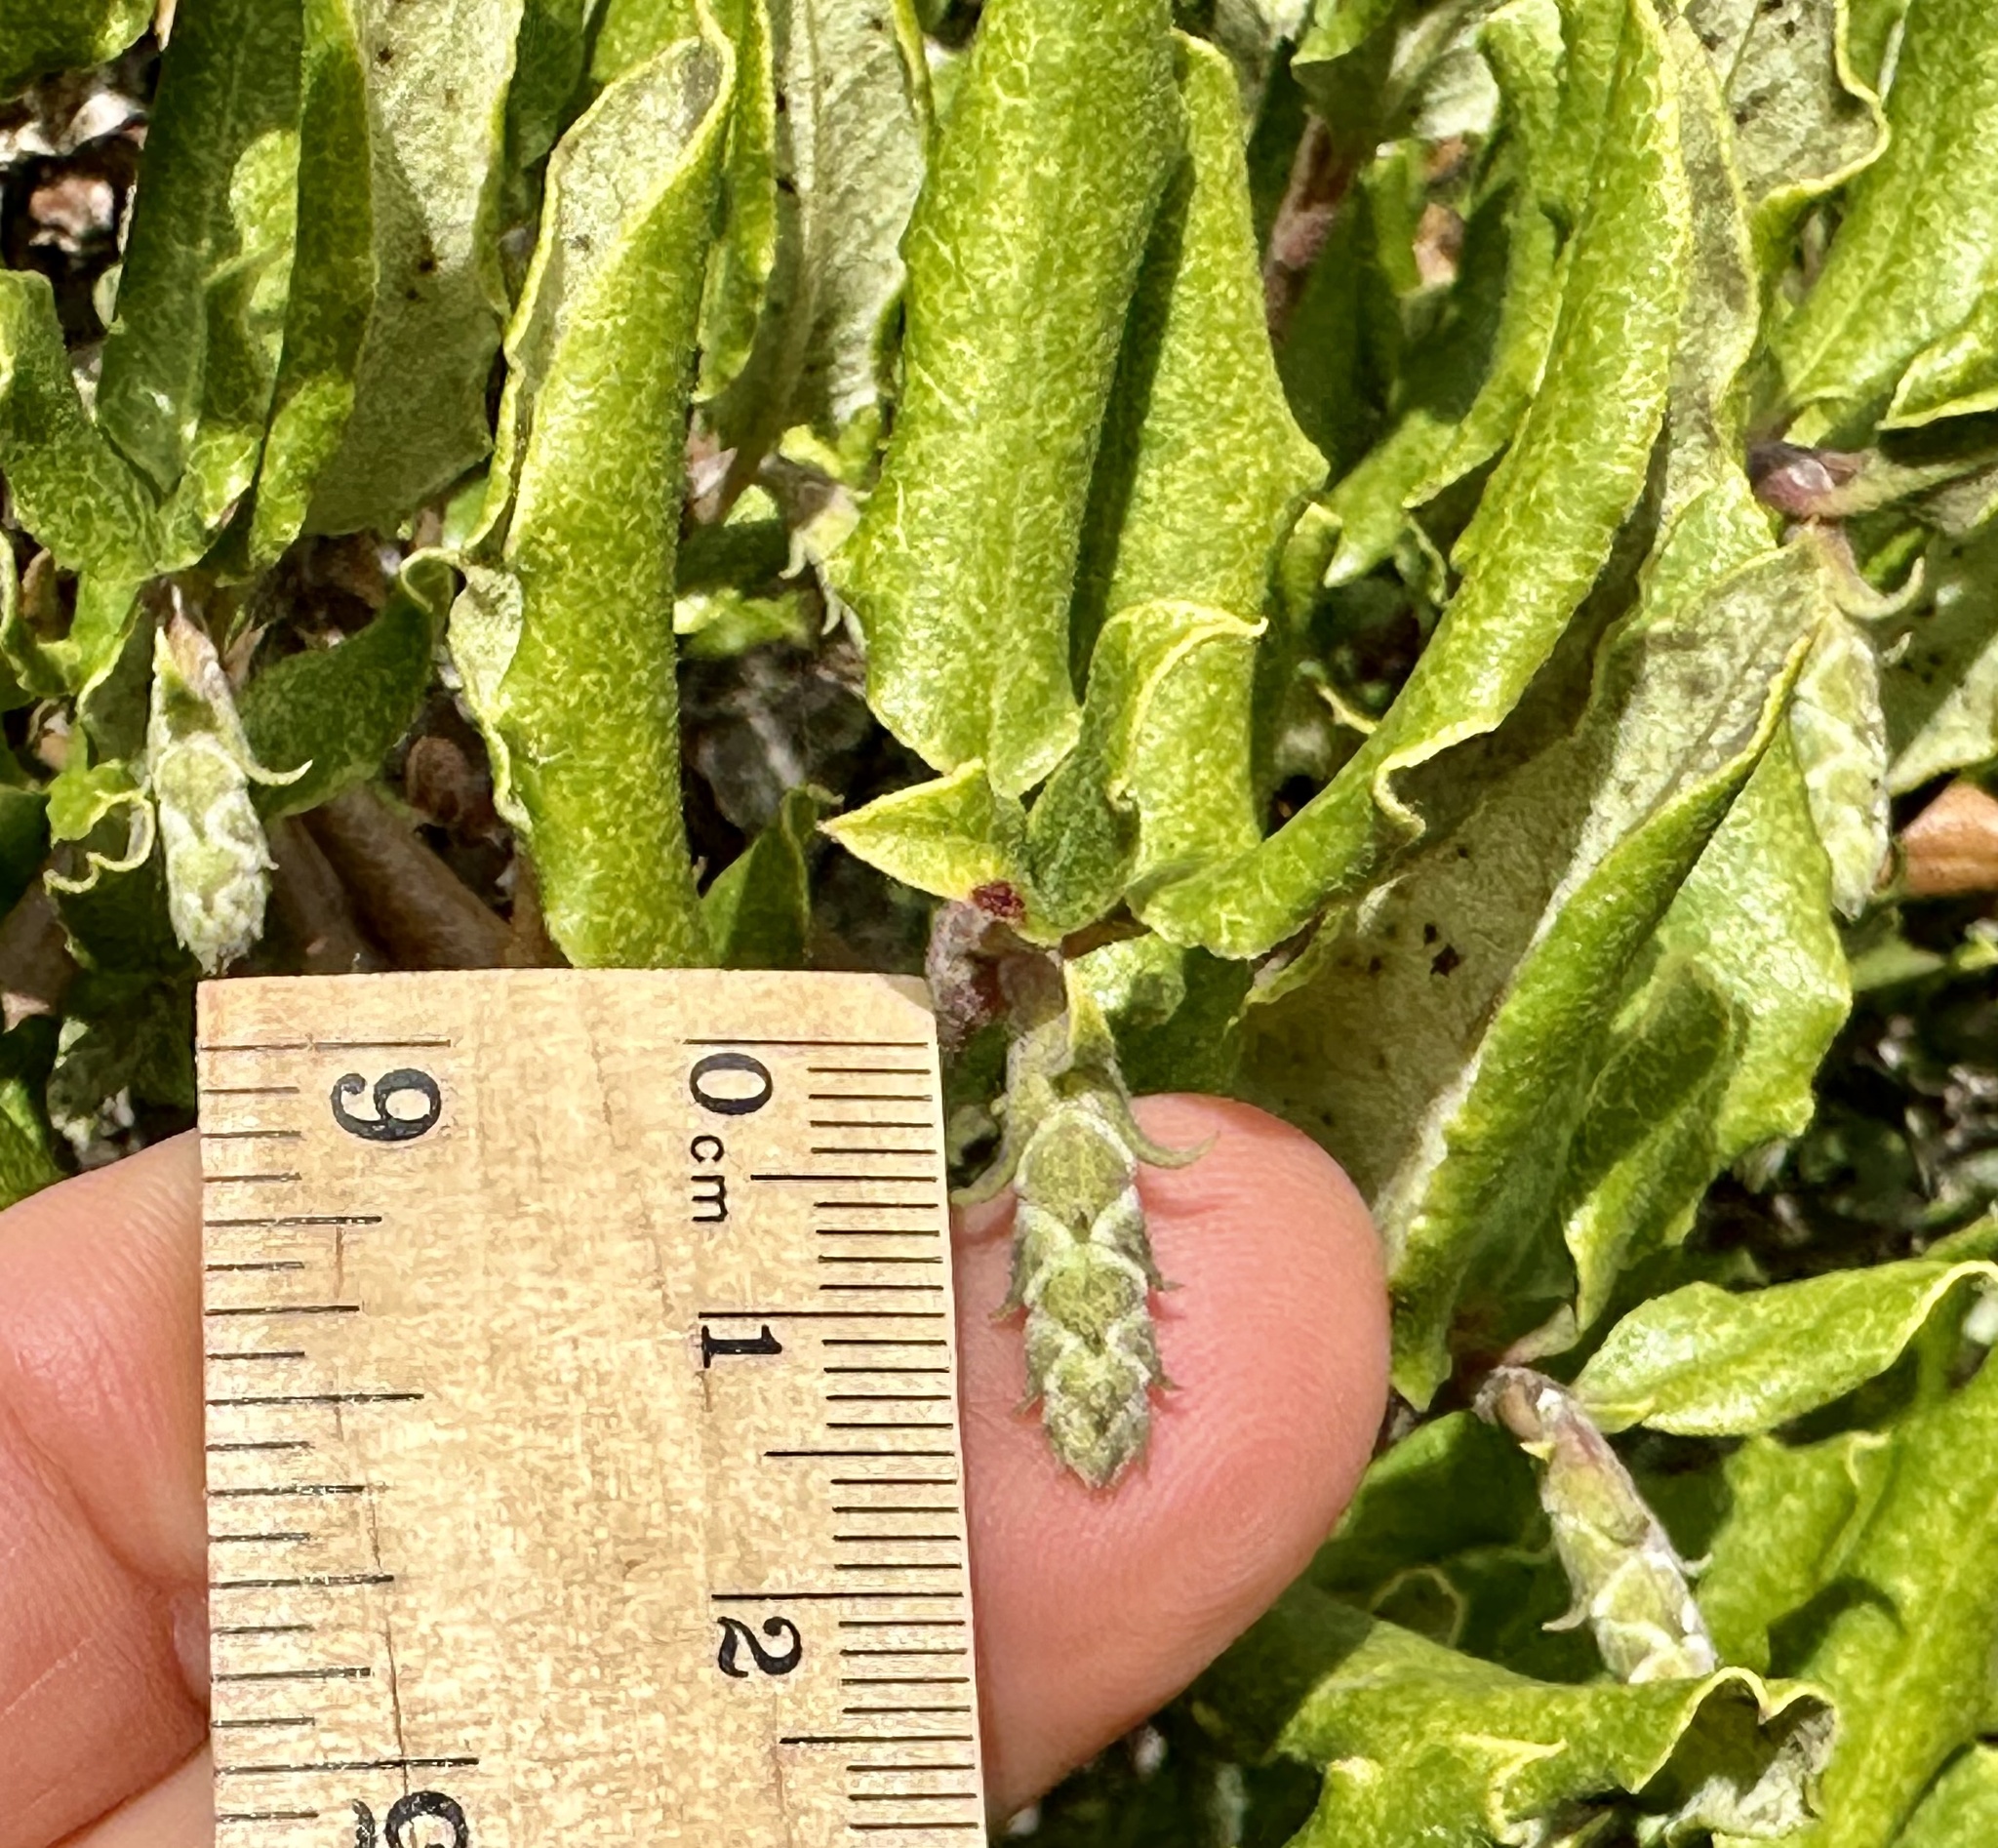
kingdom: Plantae
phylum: Tracheophyta
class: Magnoliopsida
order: Garryales
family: Garryaceae
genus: Garrya
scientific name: Garrya elliptica
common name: Silk-tassel
